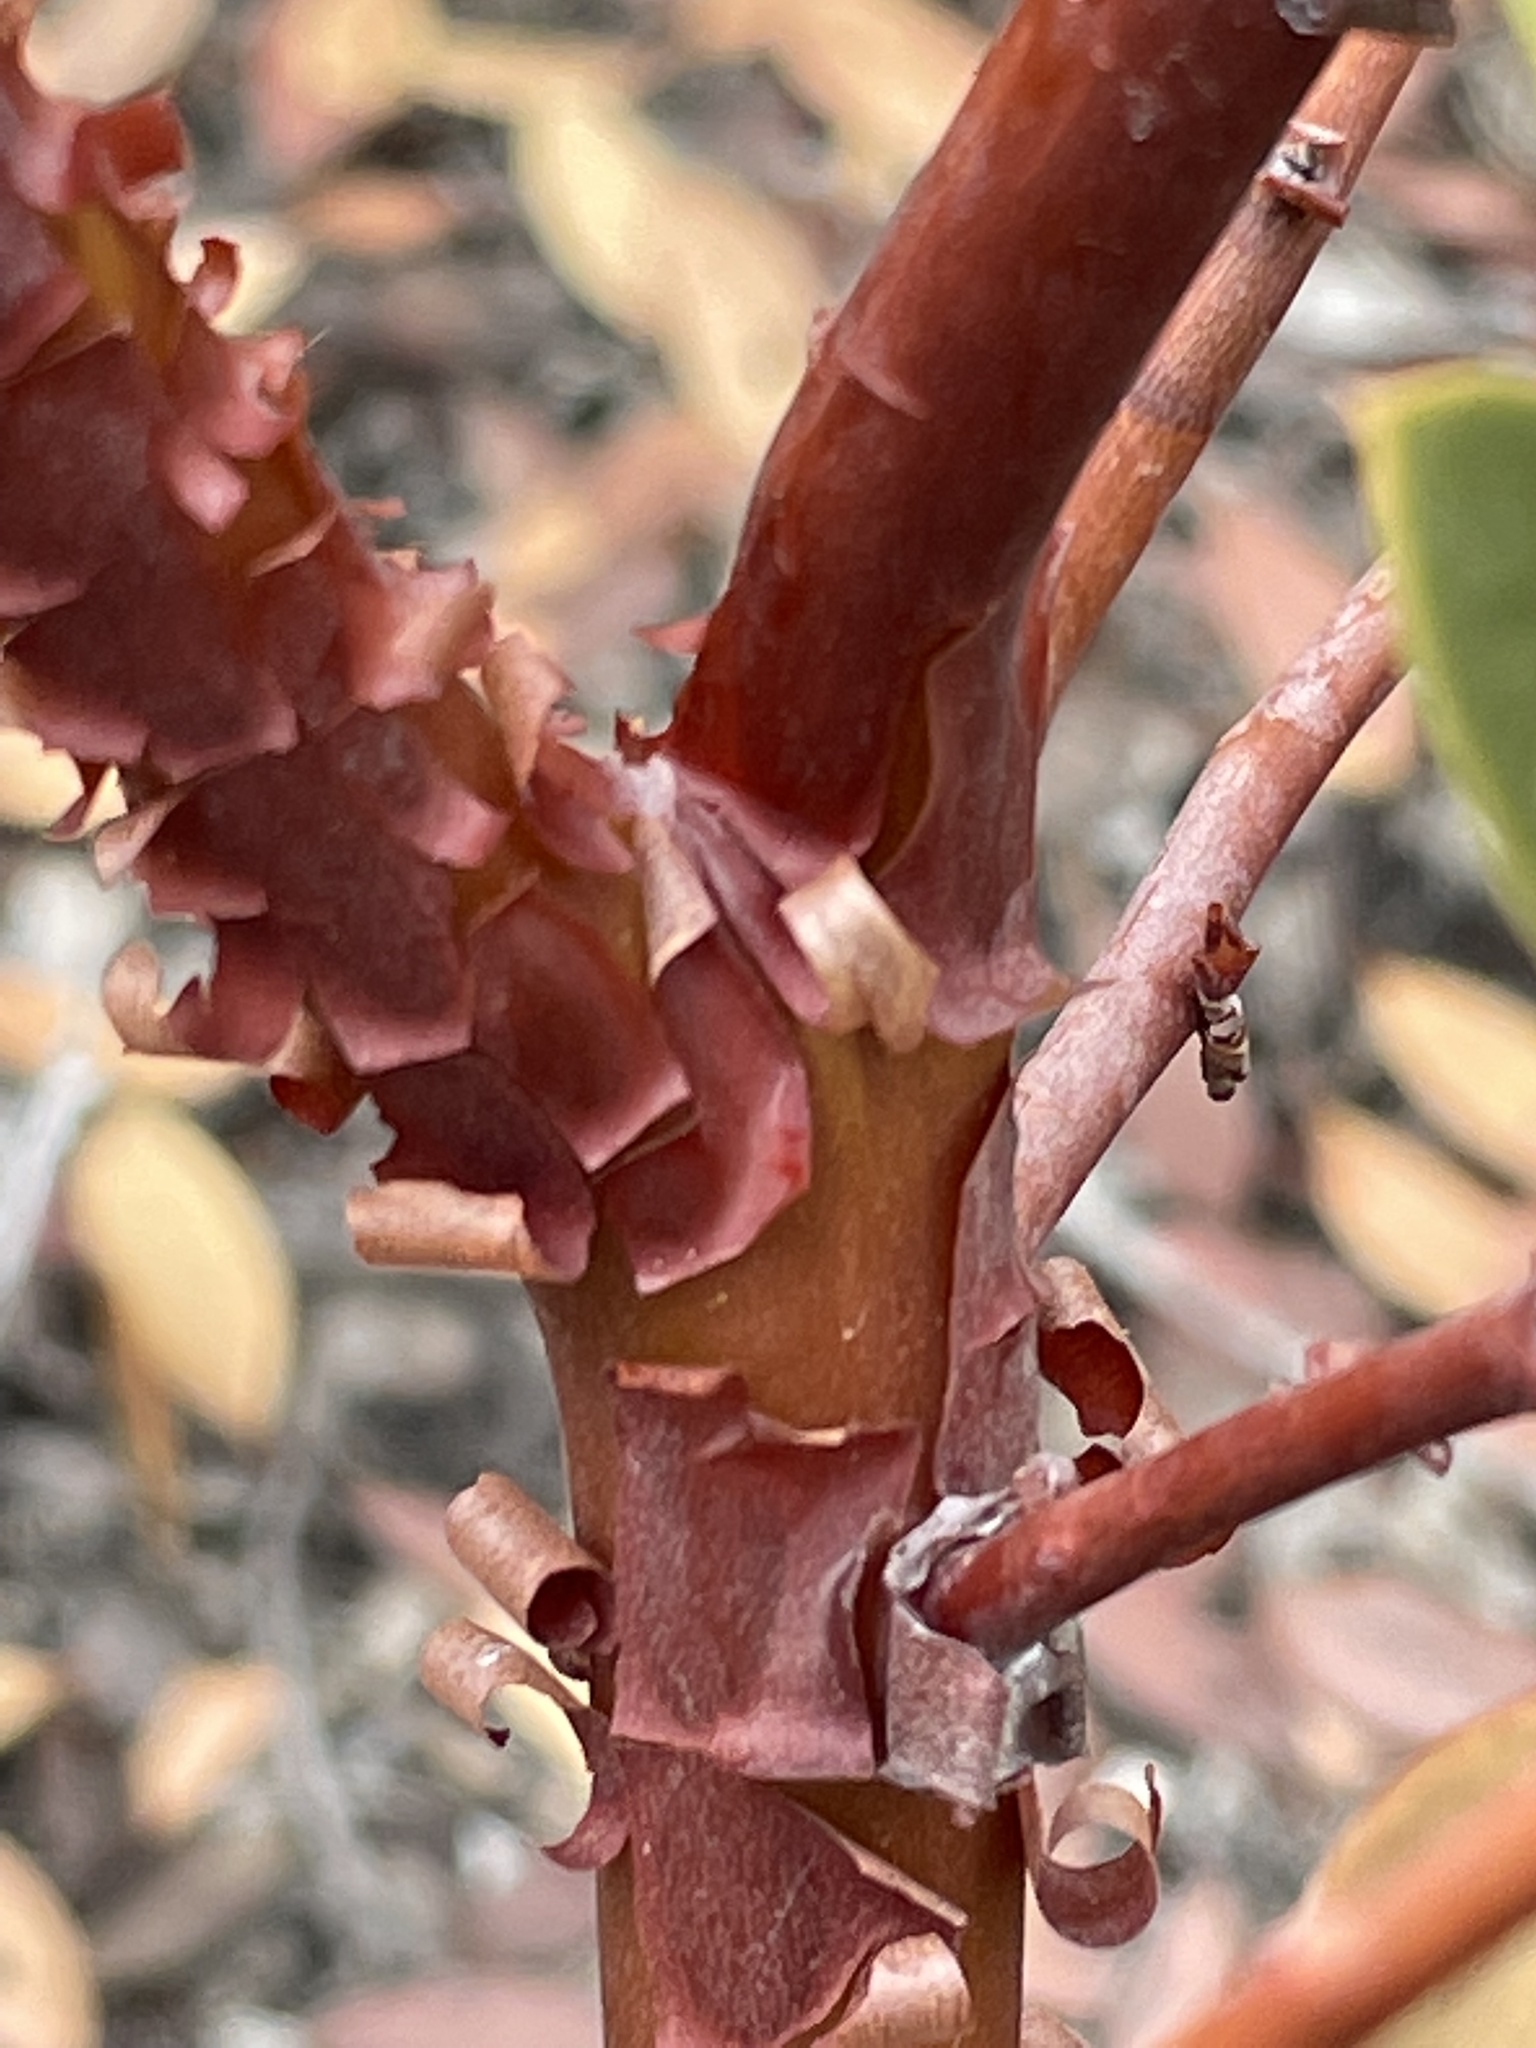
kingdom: Plantae
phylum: Tracheophyta
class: Magnoliopsida
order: Ericales
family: Ericaceae
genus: Arctostaphylos
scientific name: Arctostaphylos pungens
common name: Mexican manzanita
